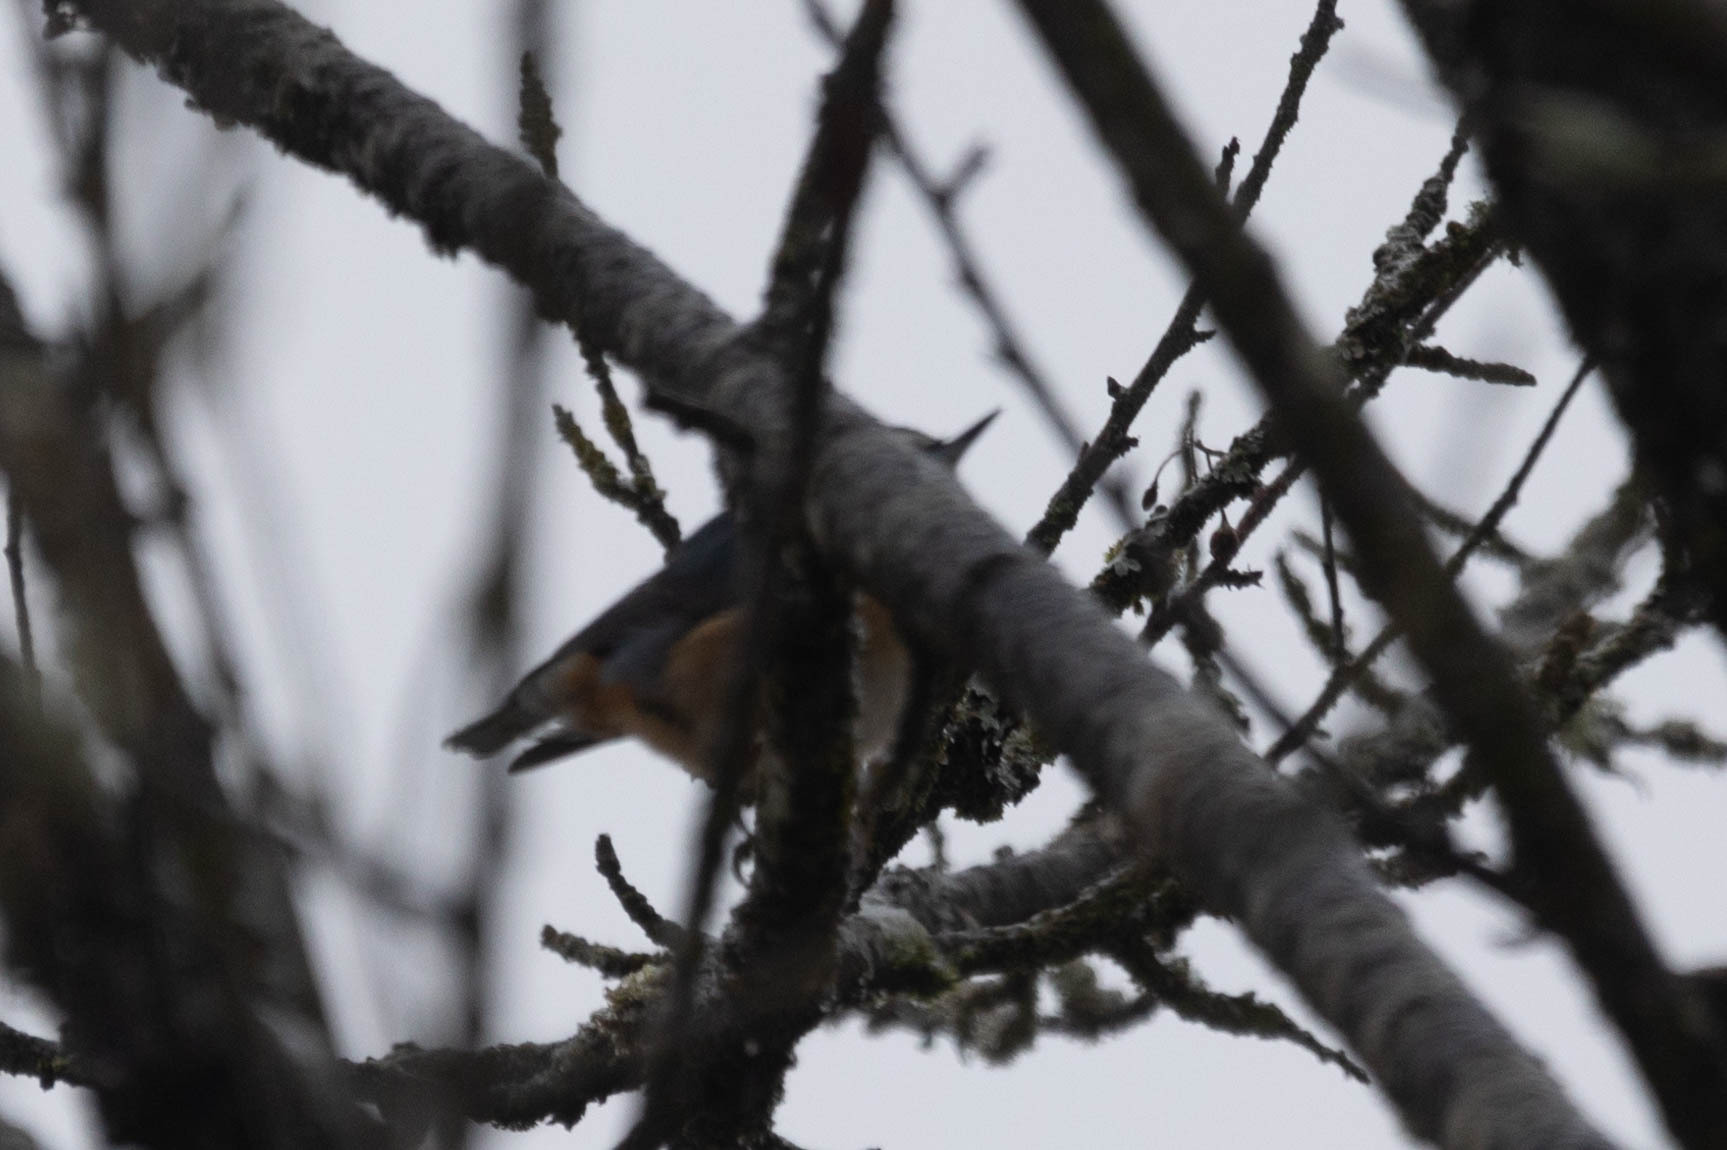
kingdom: Animalia
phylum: Chordata
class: Aves
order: Passeriformes
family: Sittidae
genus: Sitta
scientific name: Sitta canadensis
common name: Red-breasted nuthatch
